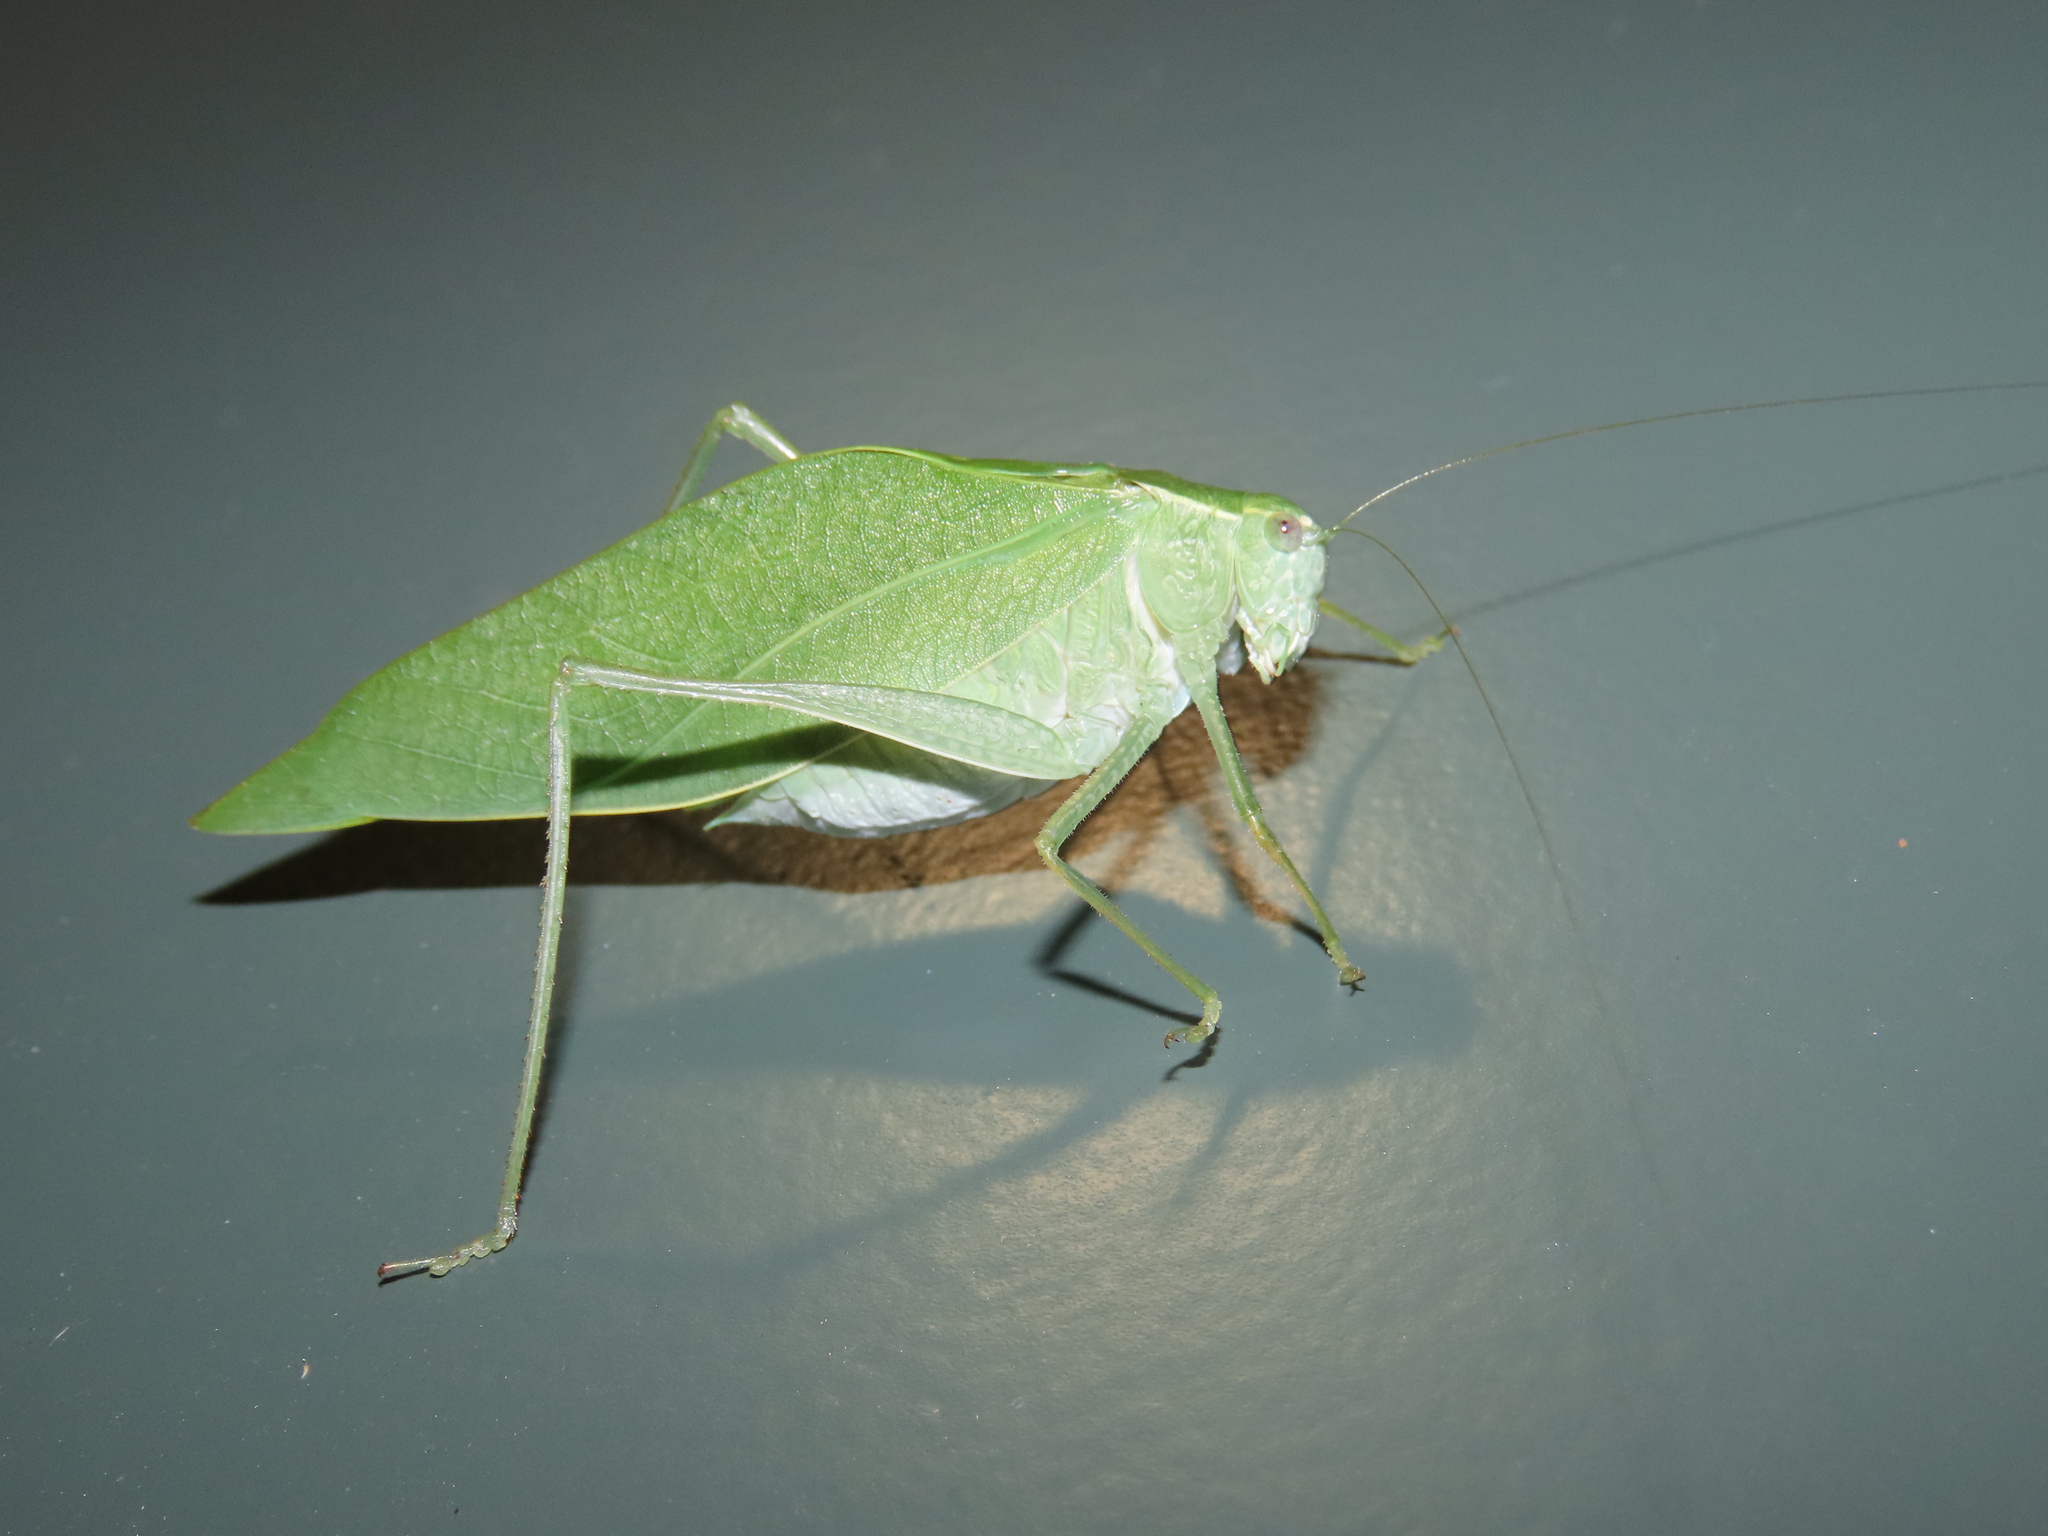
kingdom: Animalia
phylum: Arthropoda
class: Insecta
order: Orthoptera
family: Tettigoniidae
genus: Microcentrum
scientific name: Microcentrum rhombifolium
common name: Broad-winged katydid
